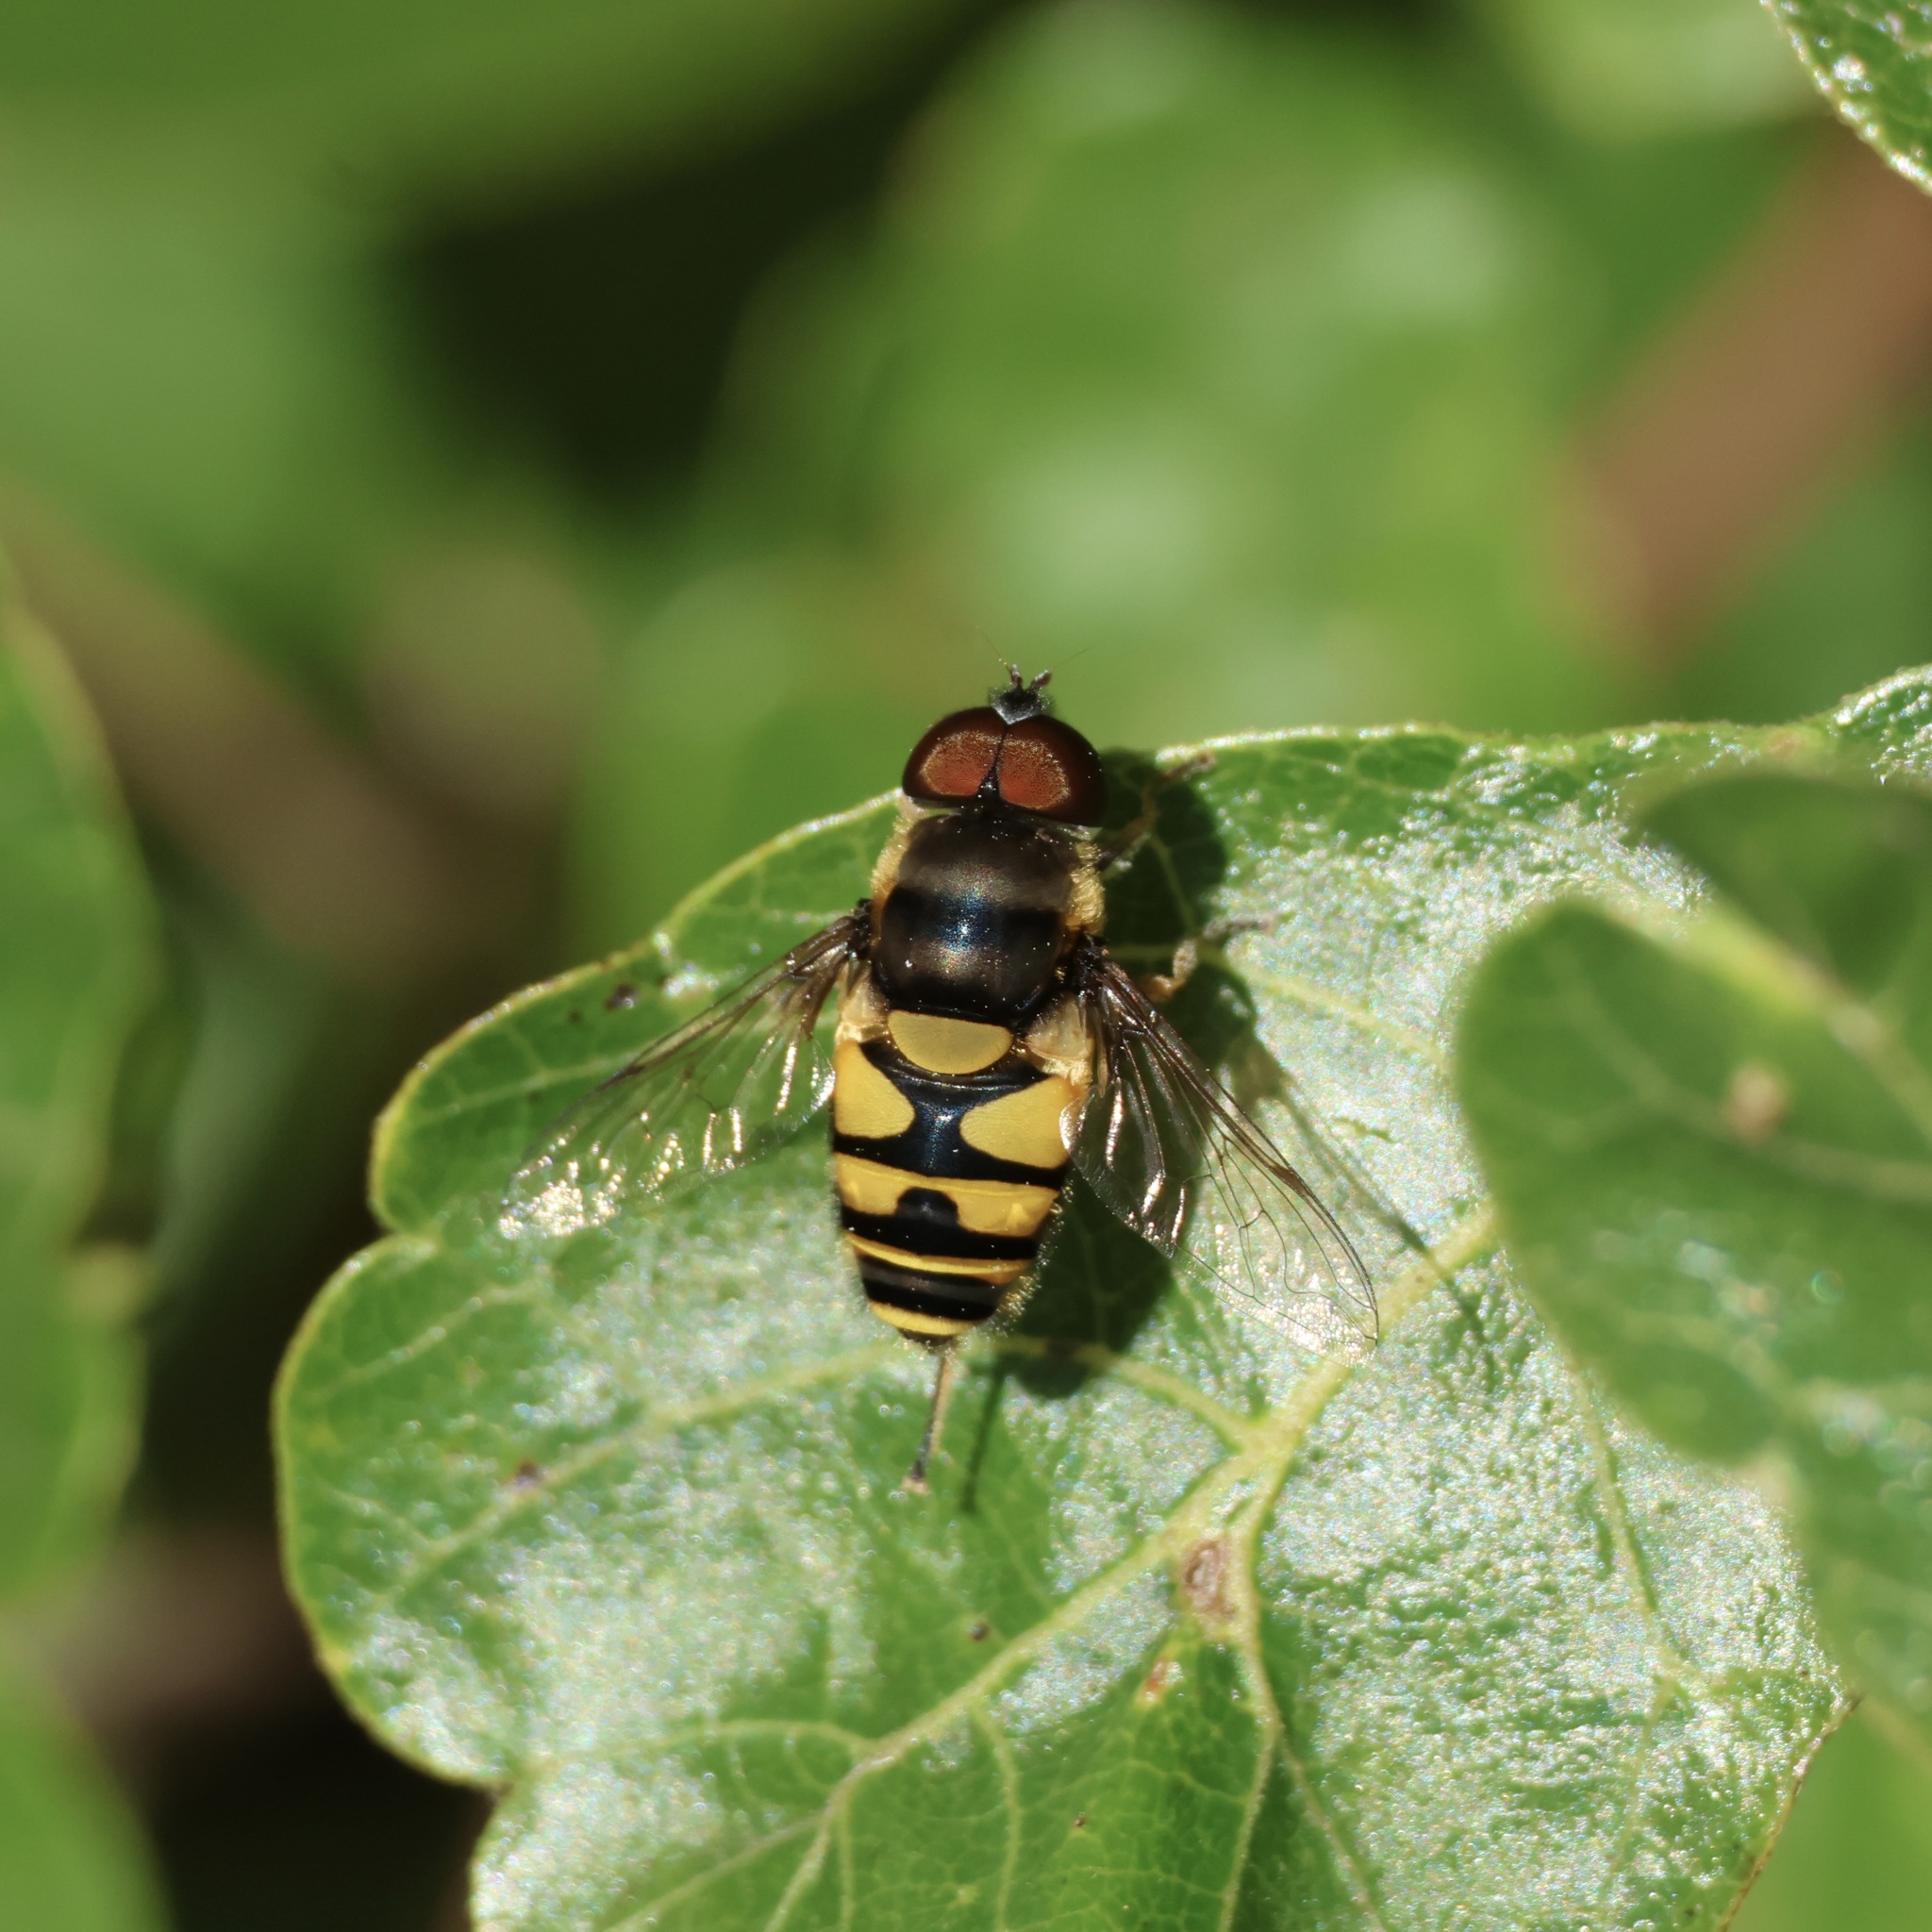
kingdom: Animalia
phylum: Arthropoda
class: Insecta
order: Diptera
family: Syrphidae
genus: Eristalis
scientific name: Eristalis transversa
